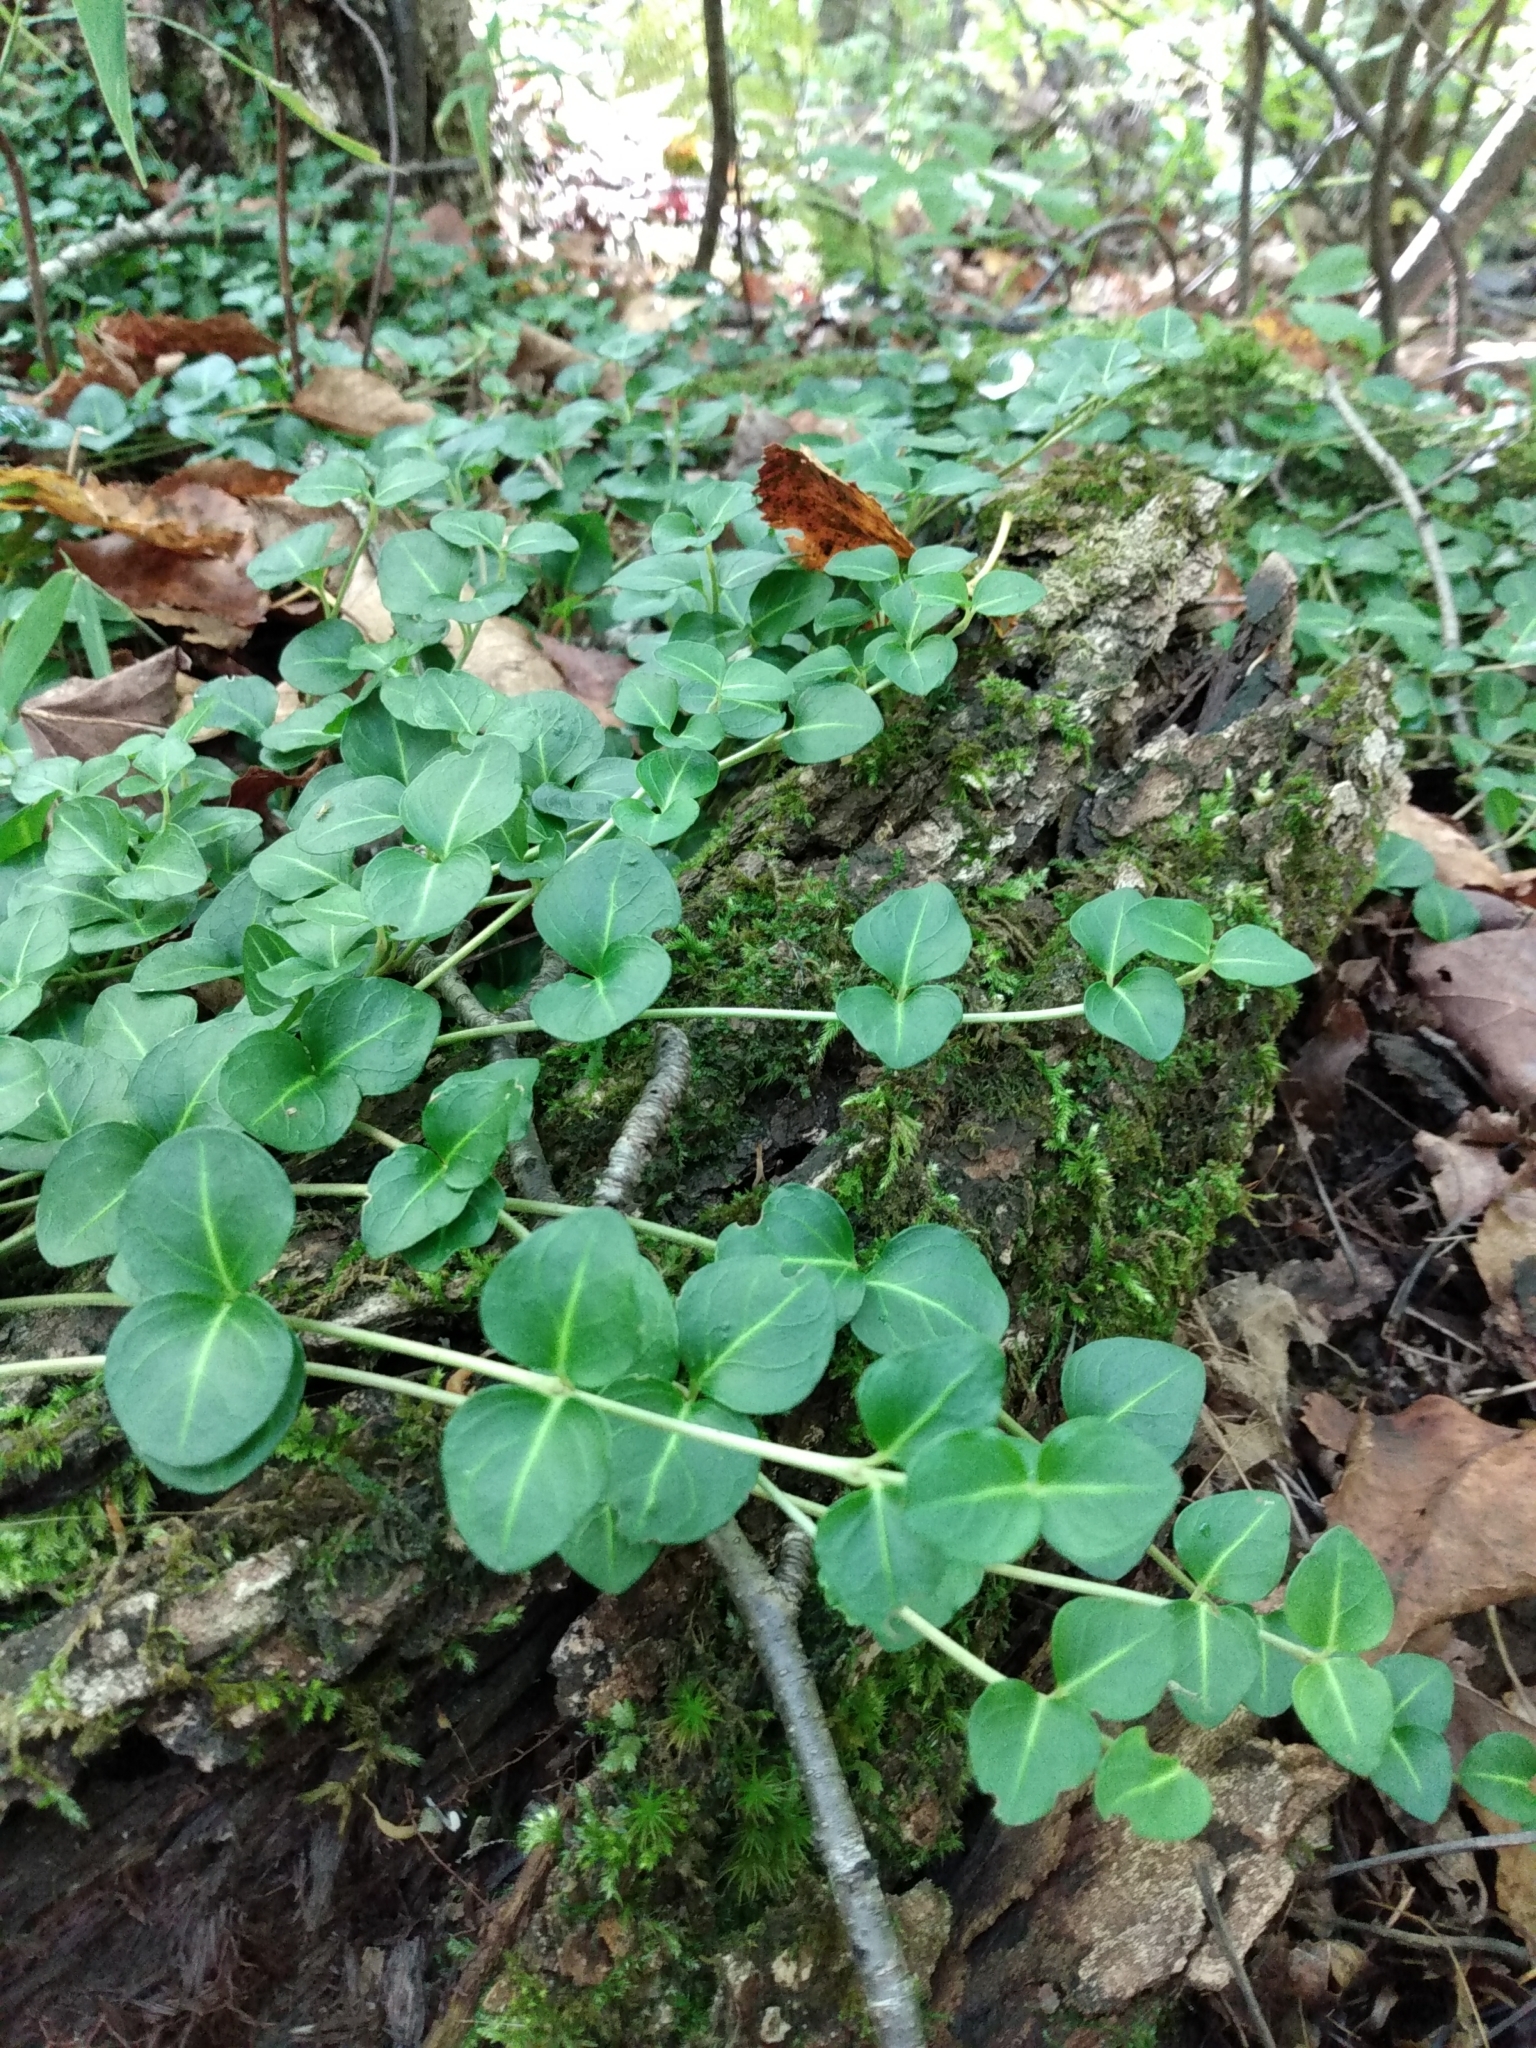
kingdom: Plantae
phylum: Tracheophyta
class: Magnoliopsida
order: Gentianales
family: Rubiaceae
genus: Mitchella
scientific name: Mitchella repens
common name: Partridge-berry
